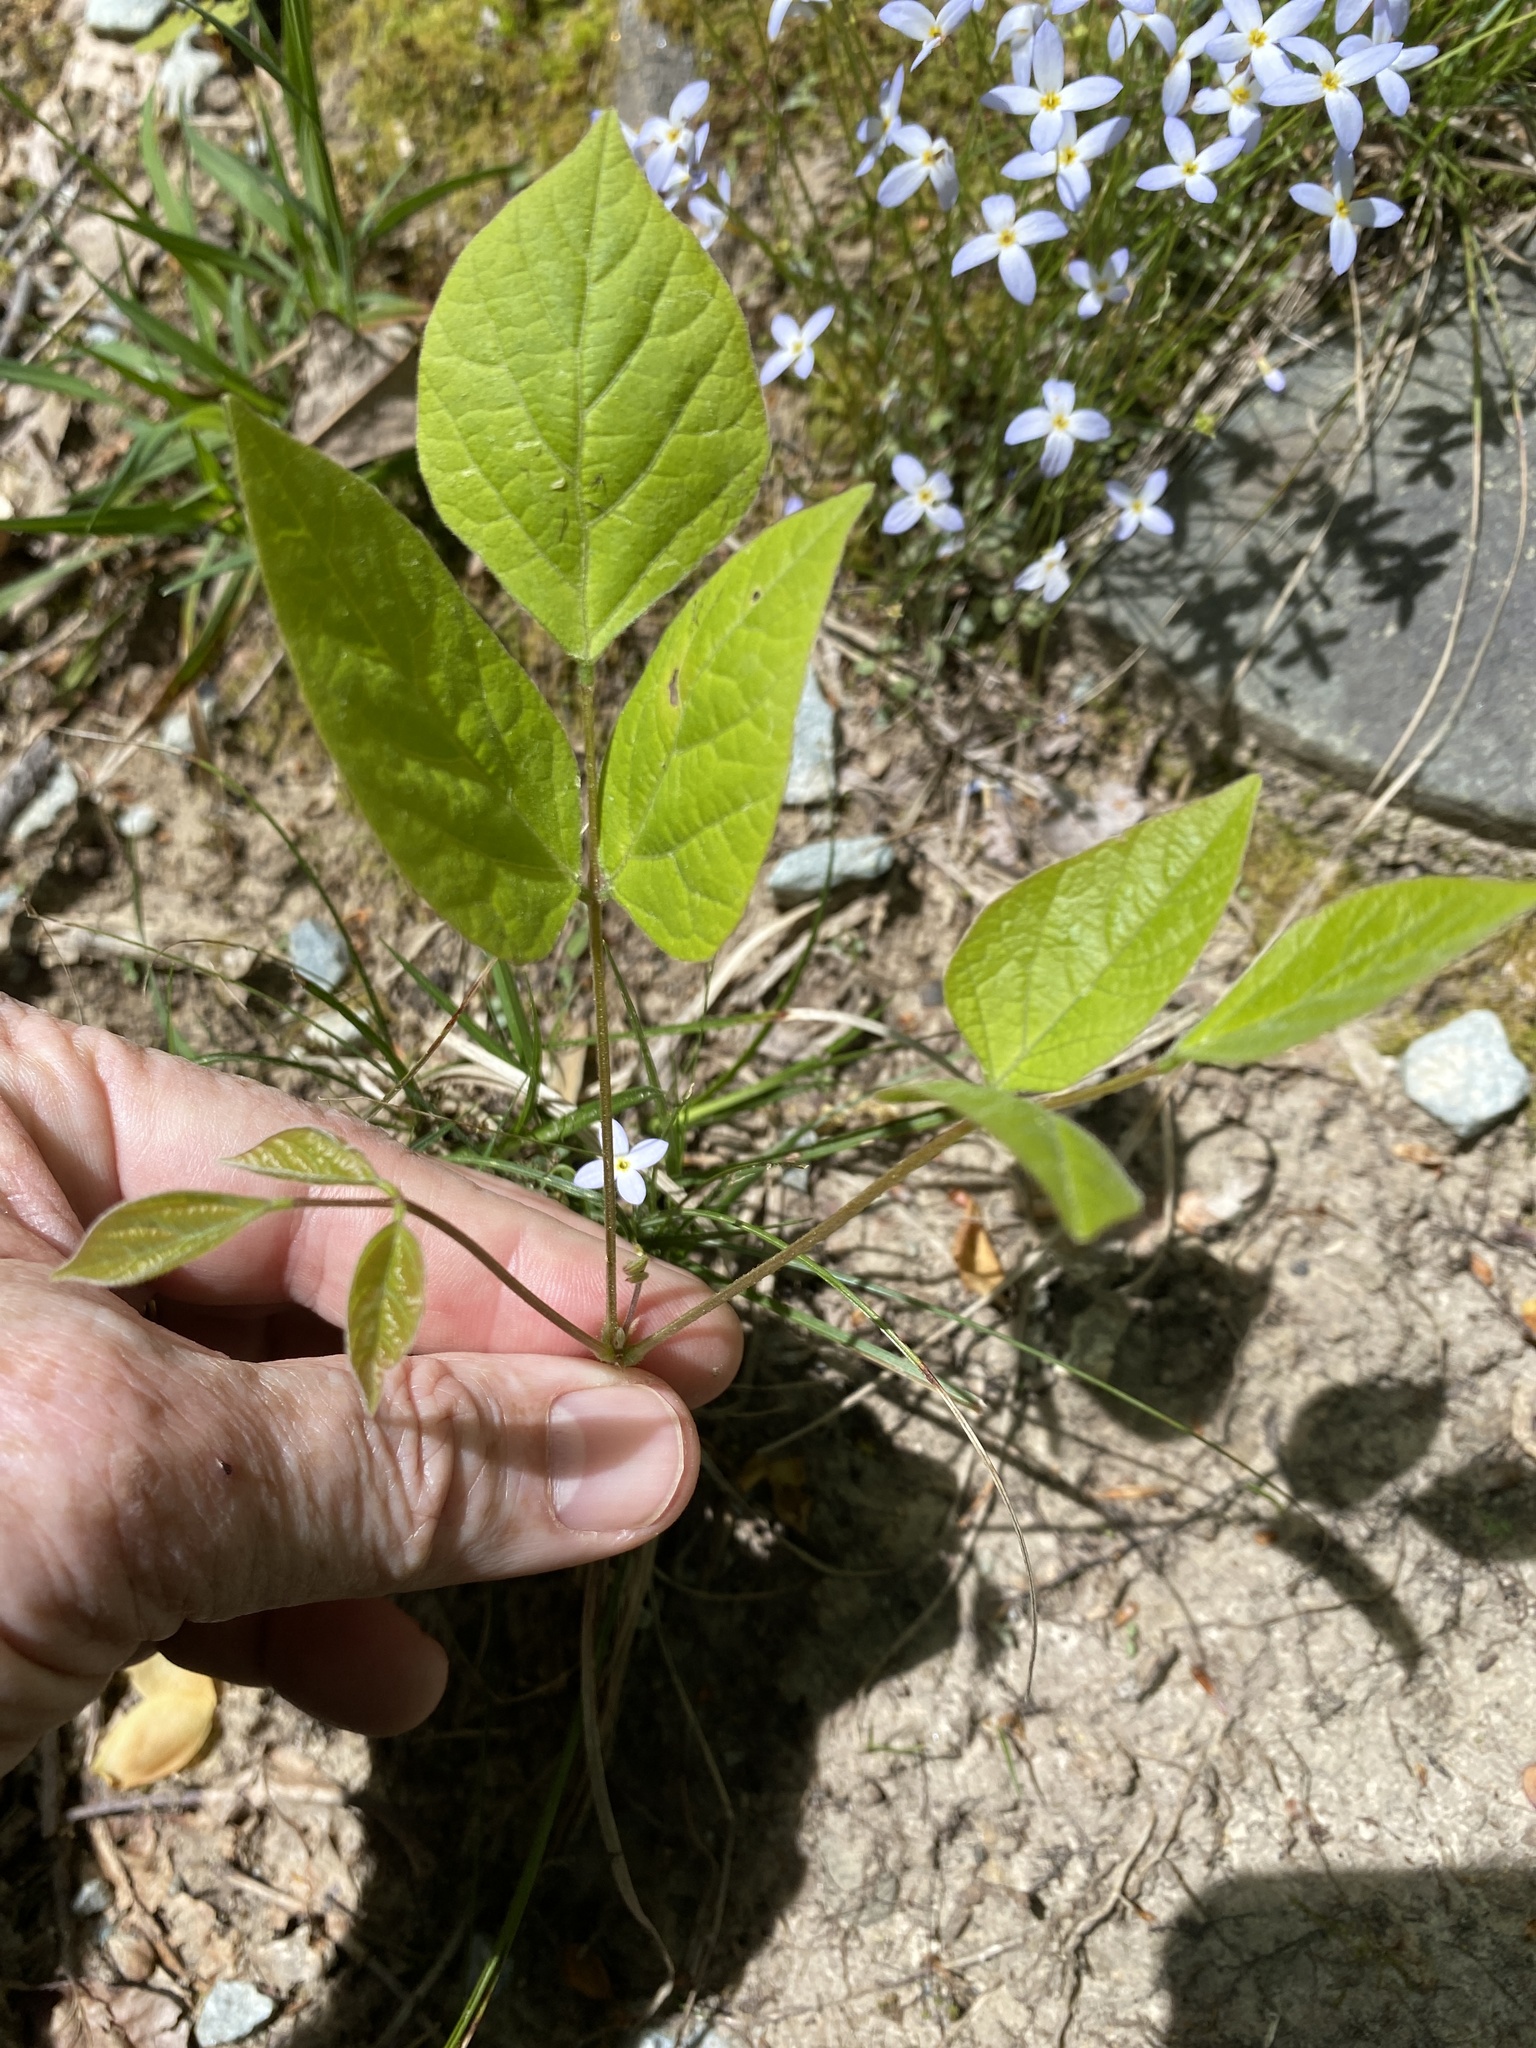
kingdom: Plantae
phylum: Tracheophyta
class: Magnoliopsida
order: Fabales
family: Fabaceae
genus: Hylodesmum
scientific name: Hylodesmum nudiflorum
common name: Bare-stemmed tick-trefoil
